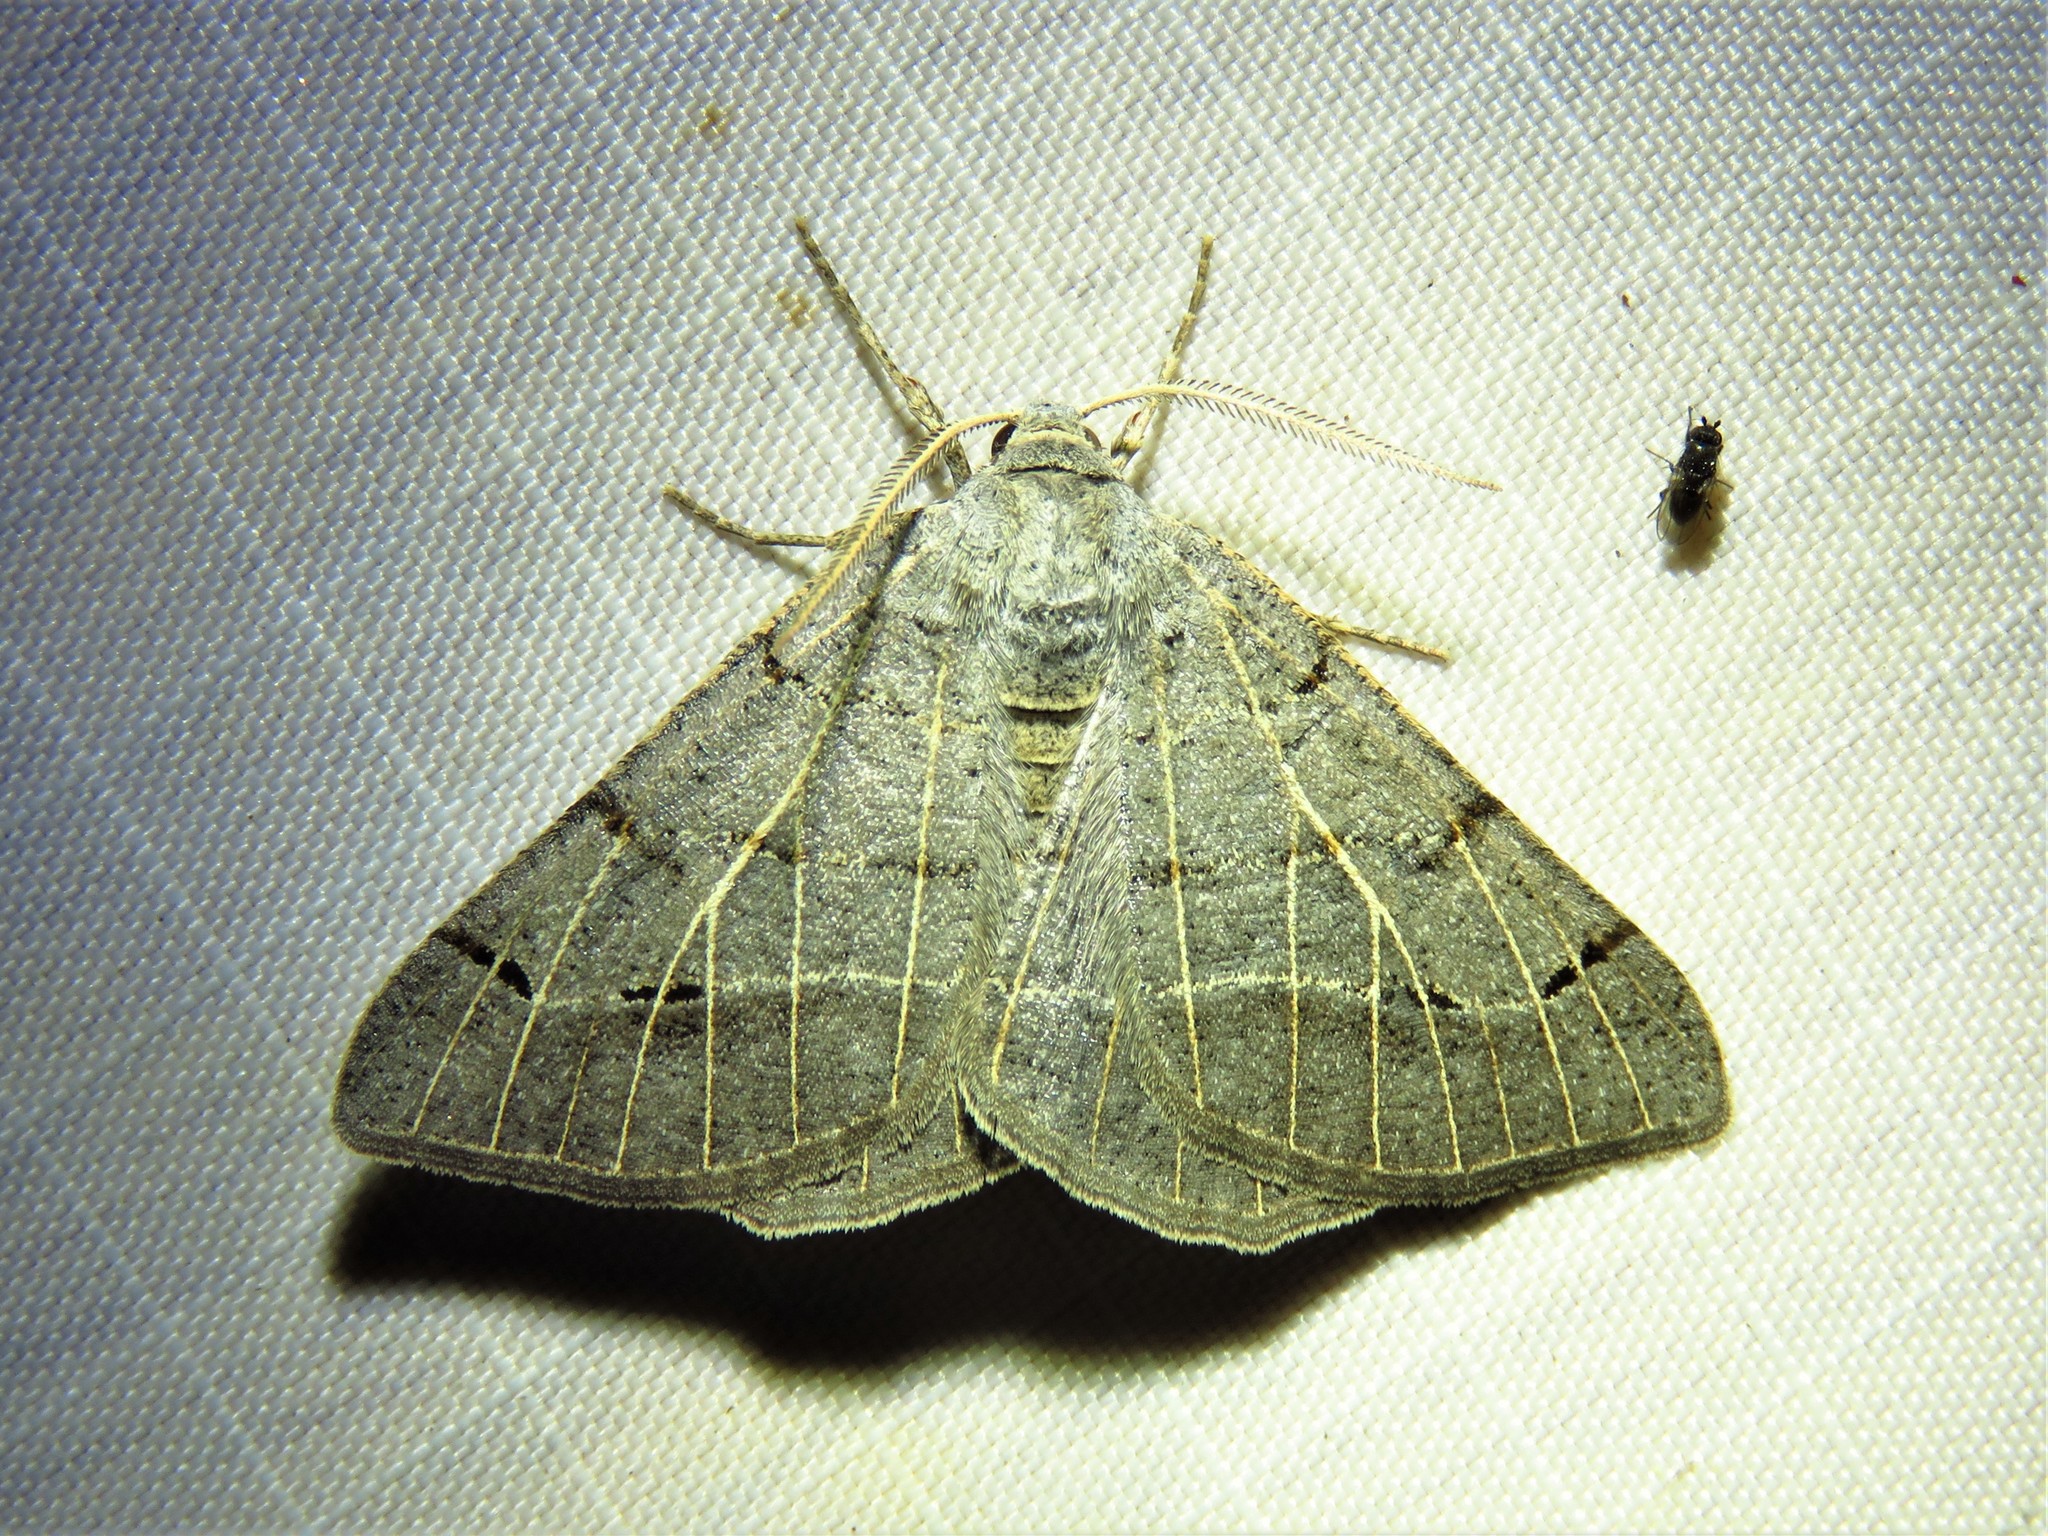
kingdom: Animalia
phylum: Arthropoda
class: Insecta
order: Lepidoptera
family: Geometridae
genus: Isturgia
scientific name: Isturgia dislocaria
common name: Pale-viened enconista
